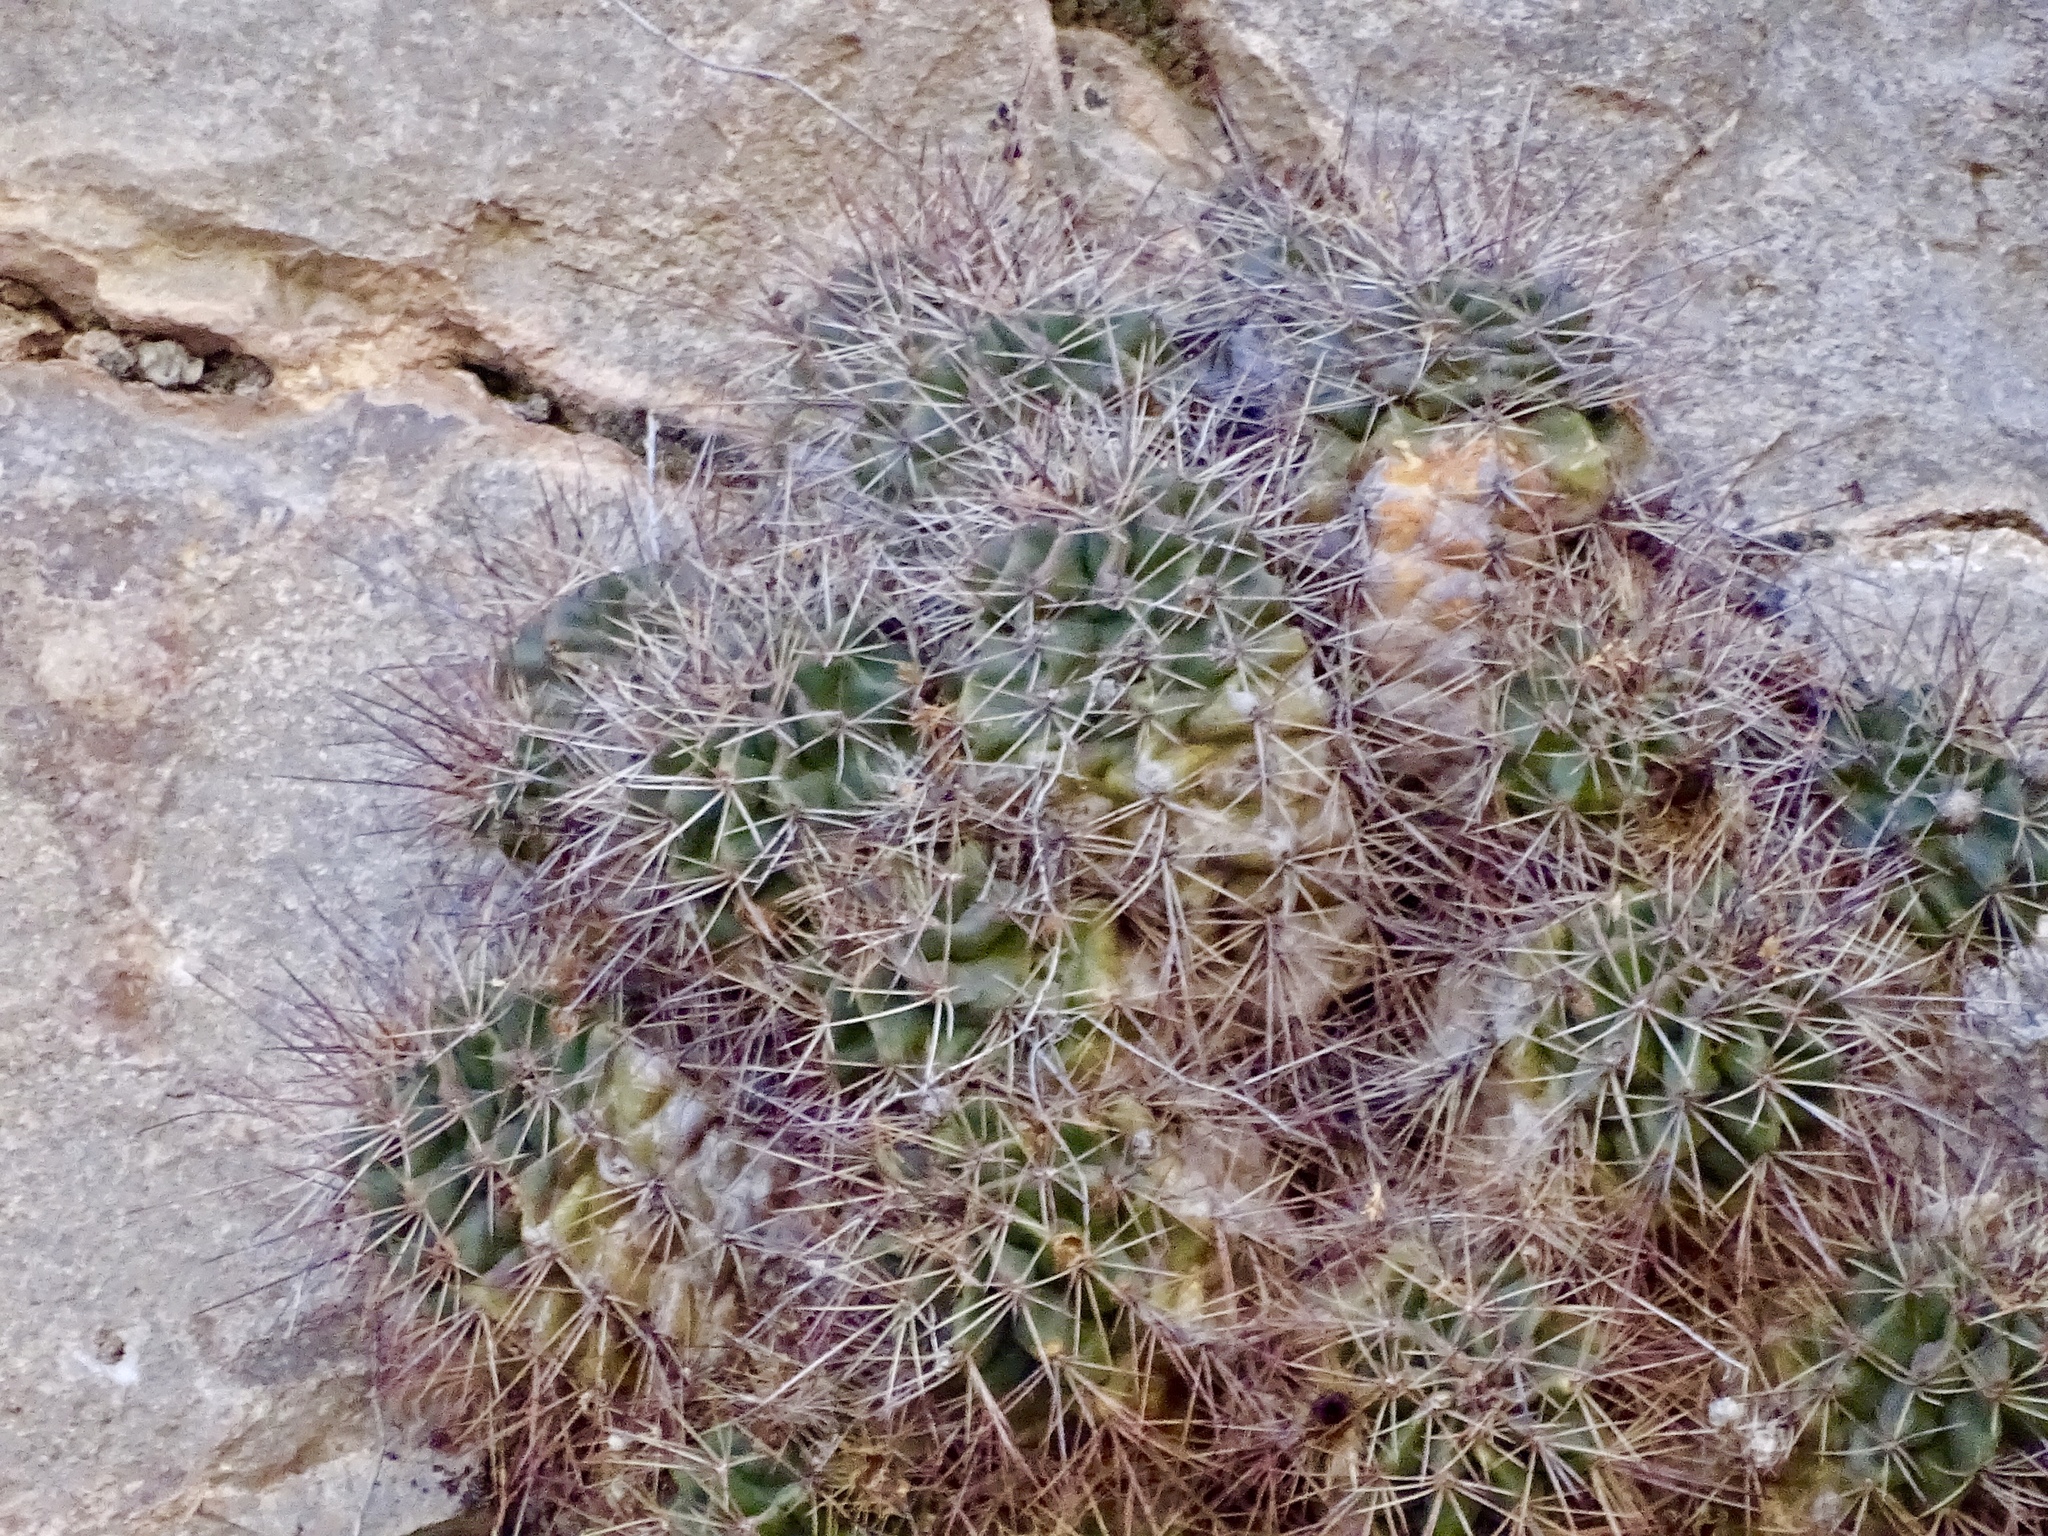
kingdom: Plantae
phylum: Tracheophyta
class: Magnoliopsida
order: Caryophyllales
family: Cactaceae
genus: Echinocereus
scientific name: Echinocereus coccineus
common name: Scarlet hedgehog cactus
